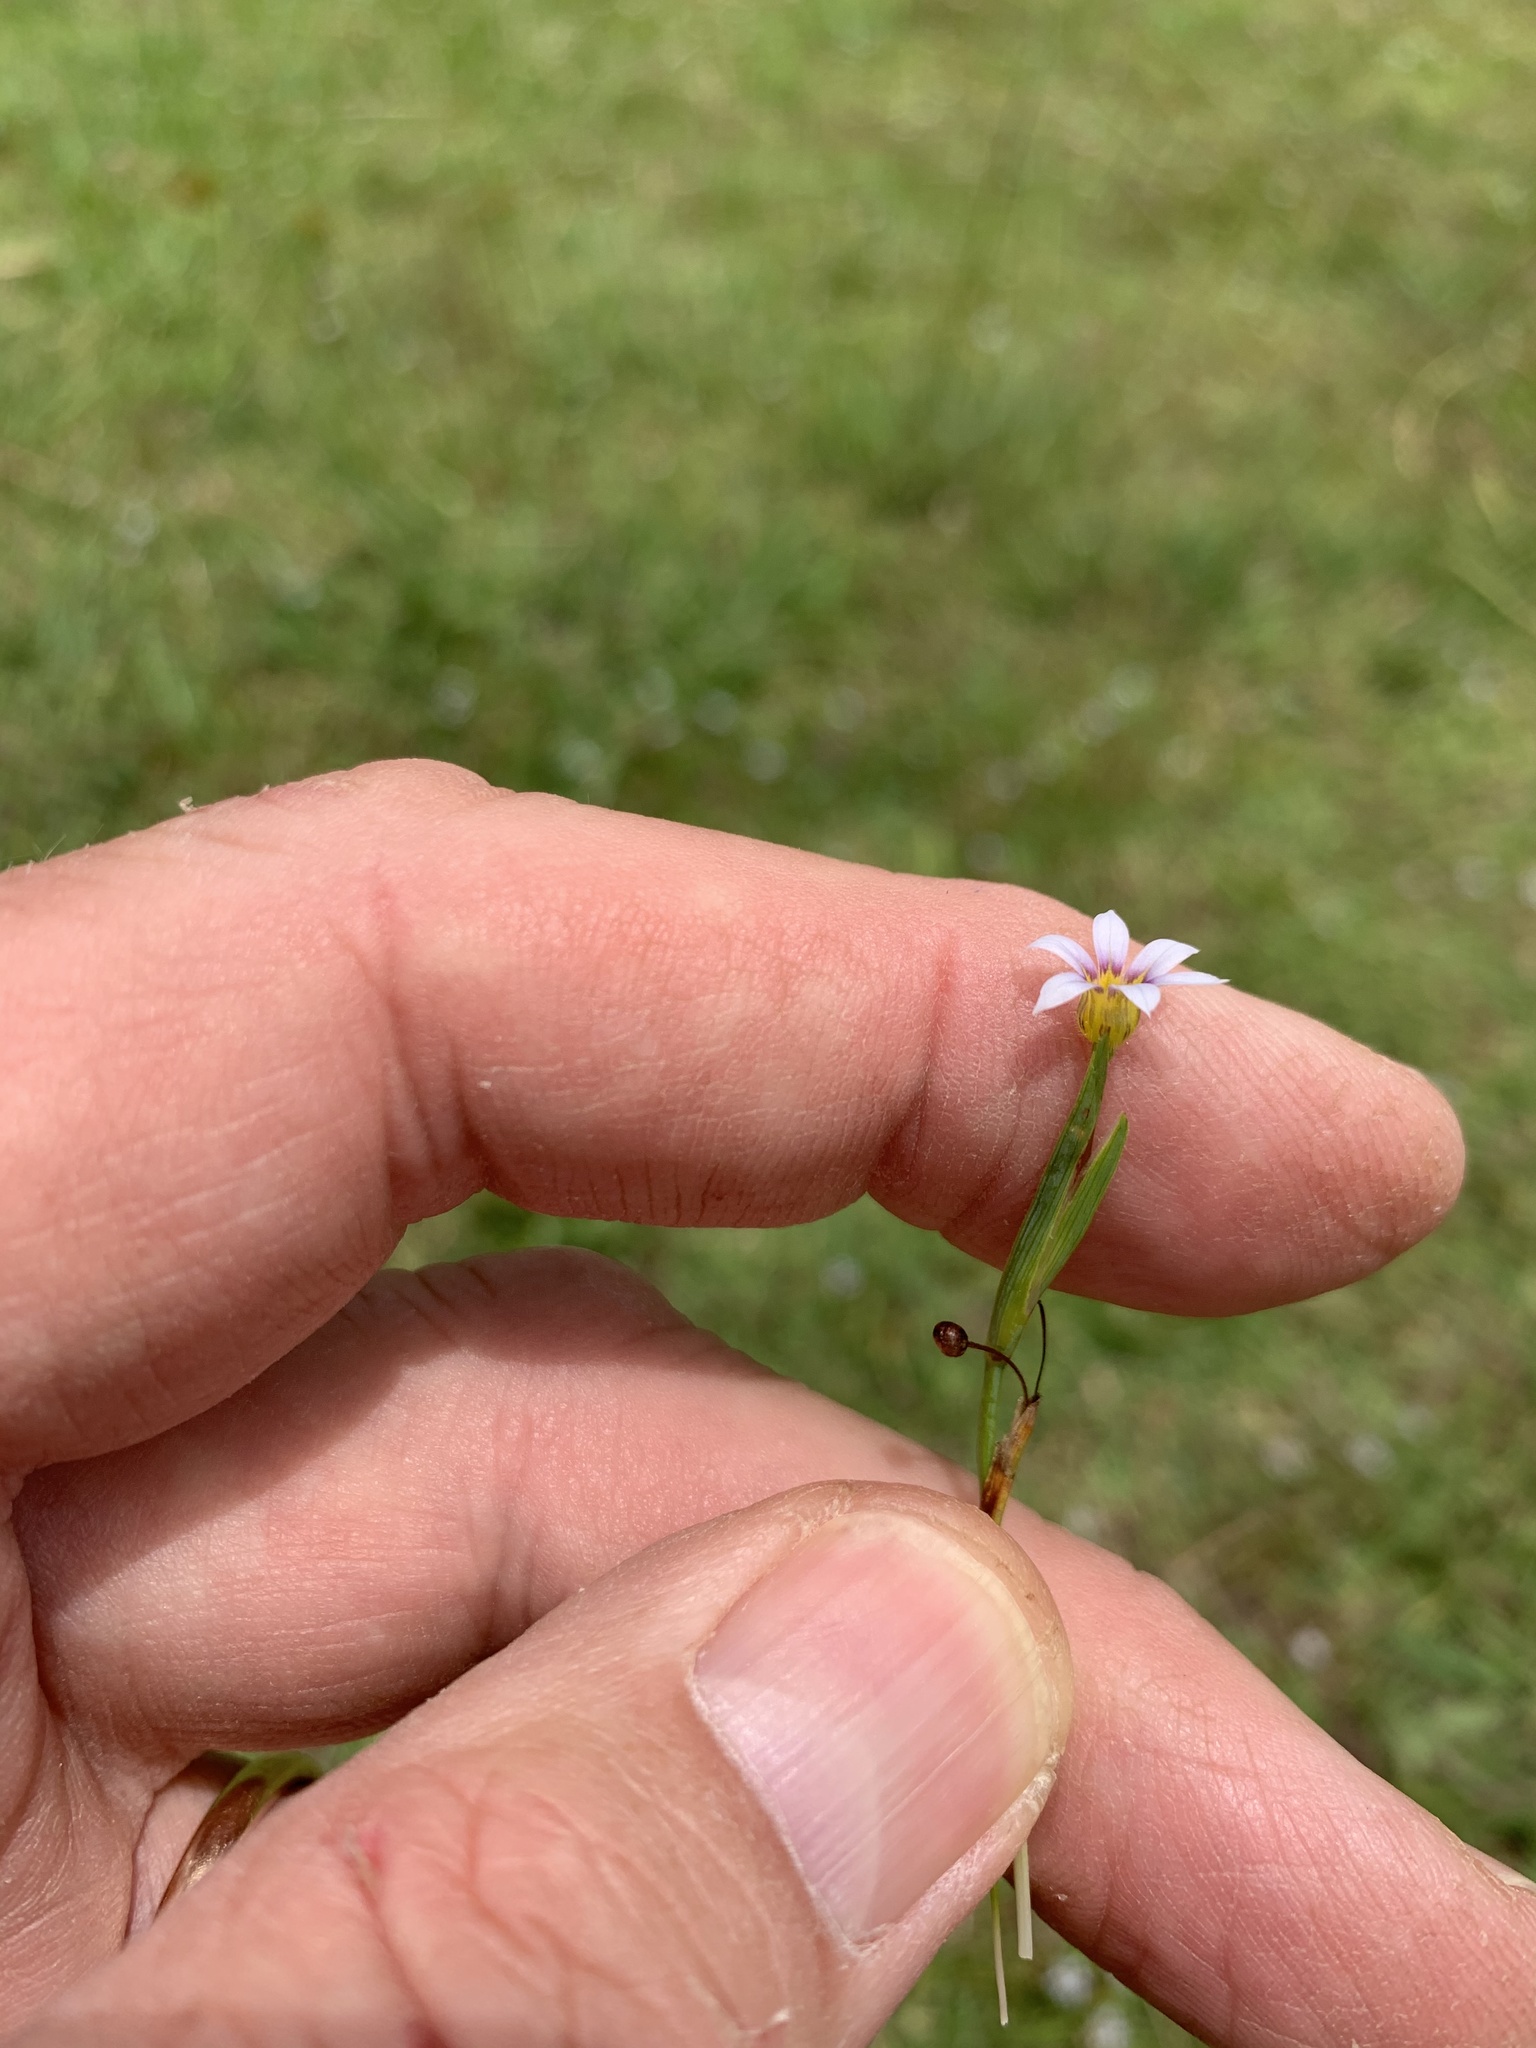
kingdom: Plantae
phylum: Tracheophyta
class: Liliopsida
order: Asparagales
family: Iridaceae
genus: Sisyrinchium
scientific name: Sisyrinchium micranthum
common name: Bermuda pigroot
